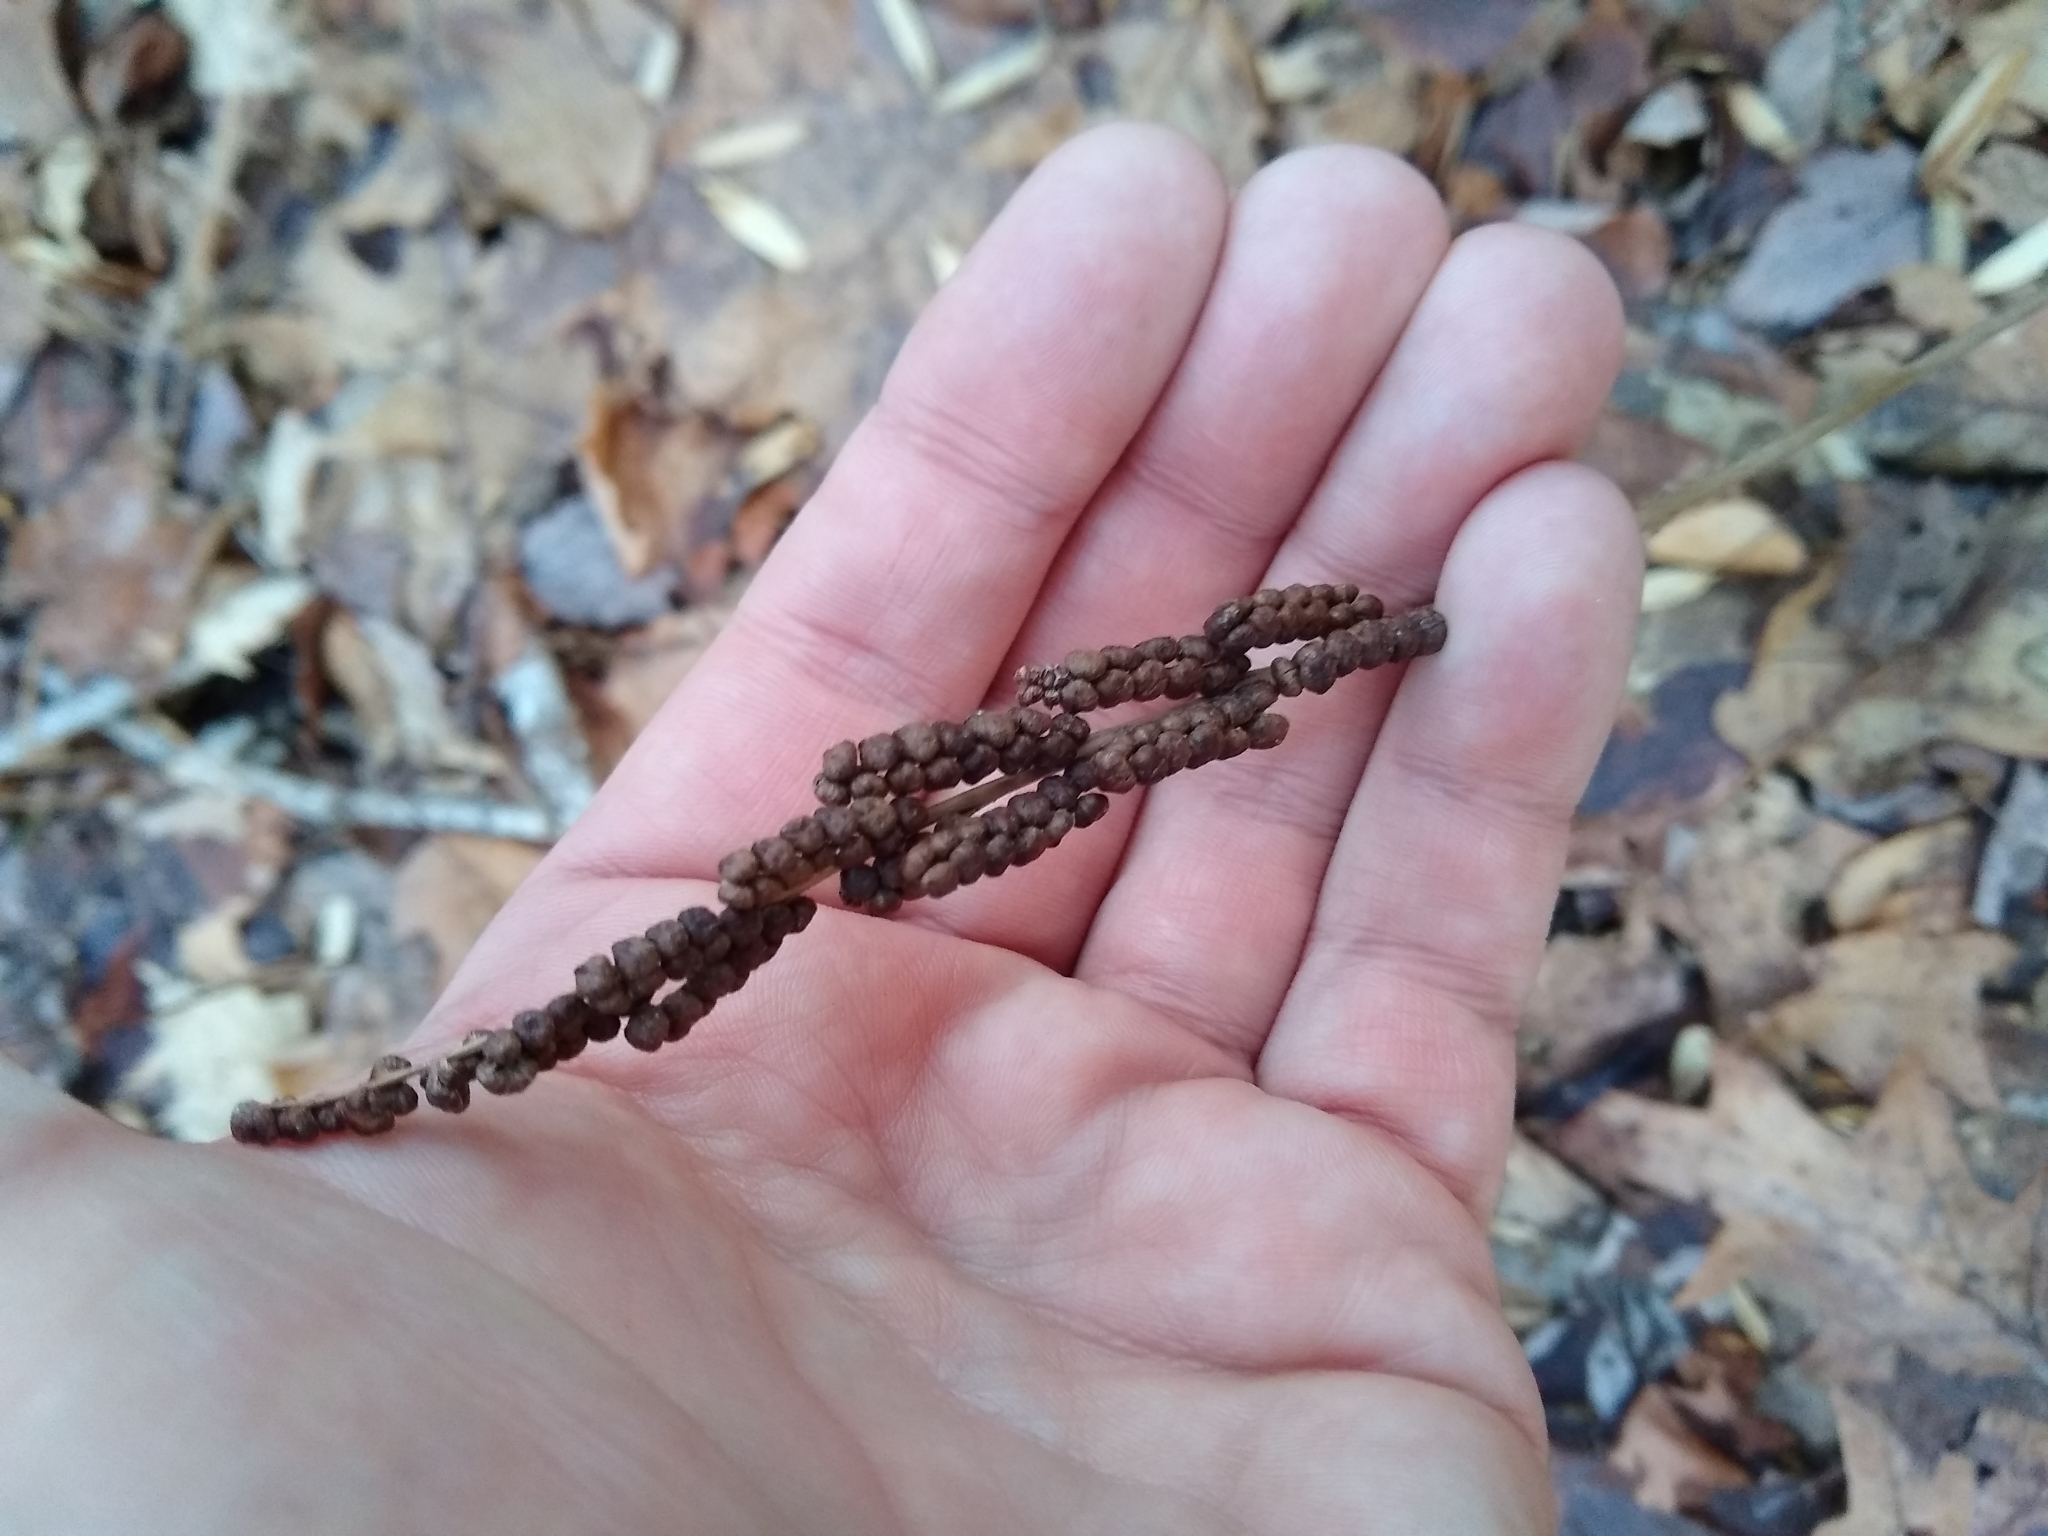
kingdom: Plantae
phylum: Tracheophyta
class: Polypodiopsida
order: Polypodiales
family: Onocleaceae
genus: Onoclea
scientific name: Onoclea sensibilis
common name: Sensitive fern
